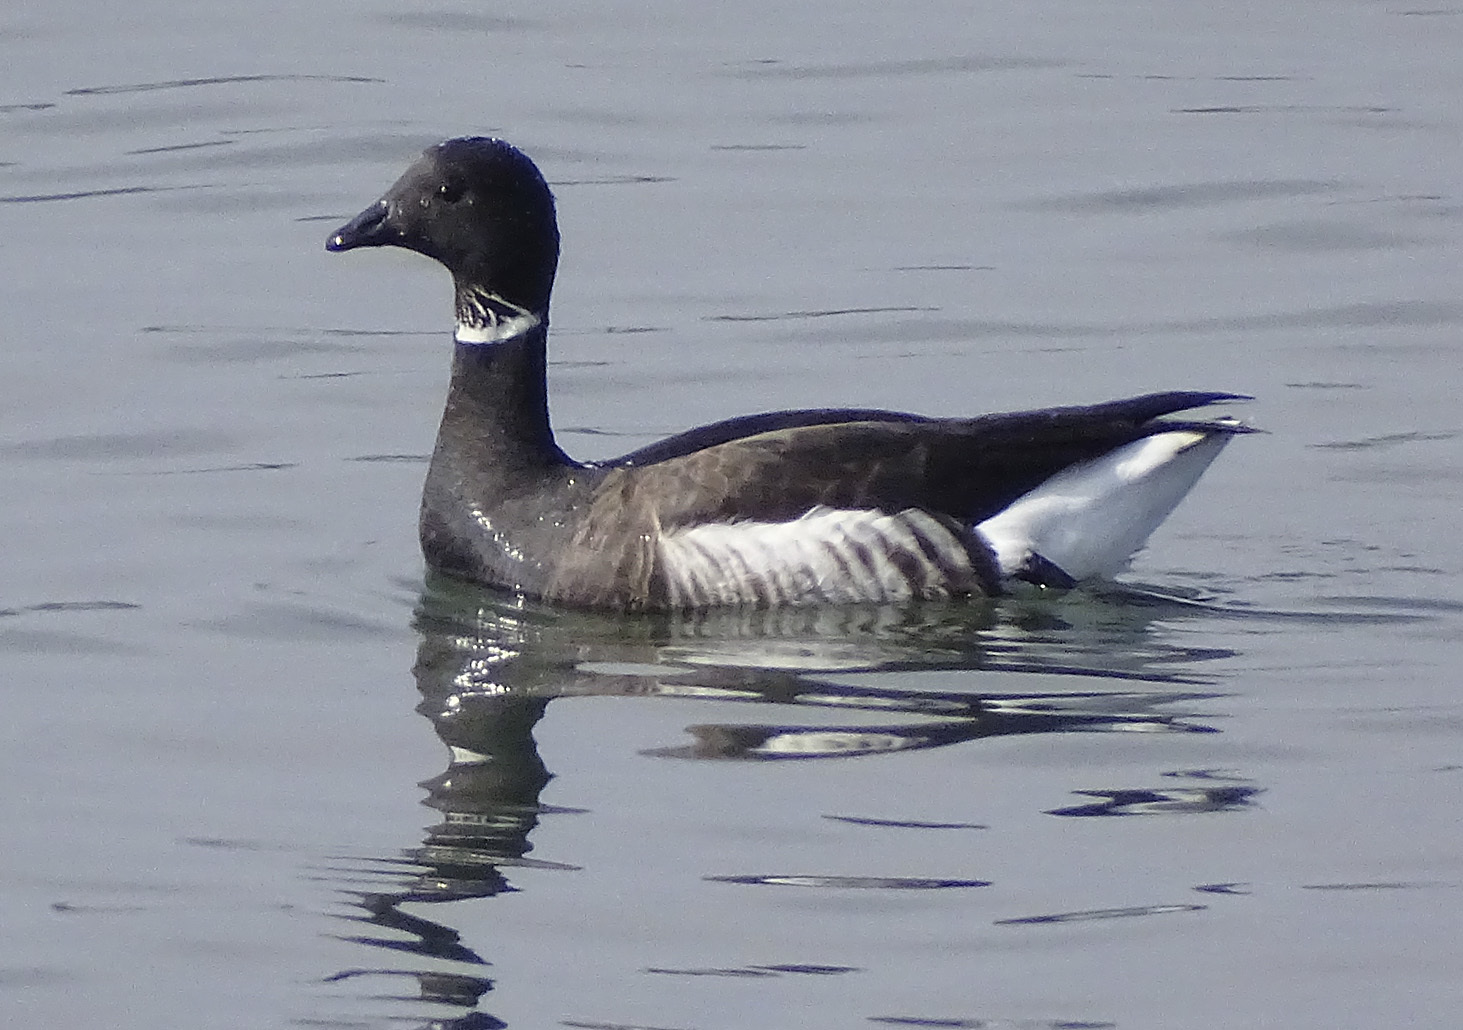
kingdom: Animalia
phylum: Chordata
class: Aves
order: Anseriformes
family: Anatidae
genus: Branta
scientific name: Branta bernicla
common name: Brant goose
